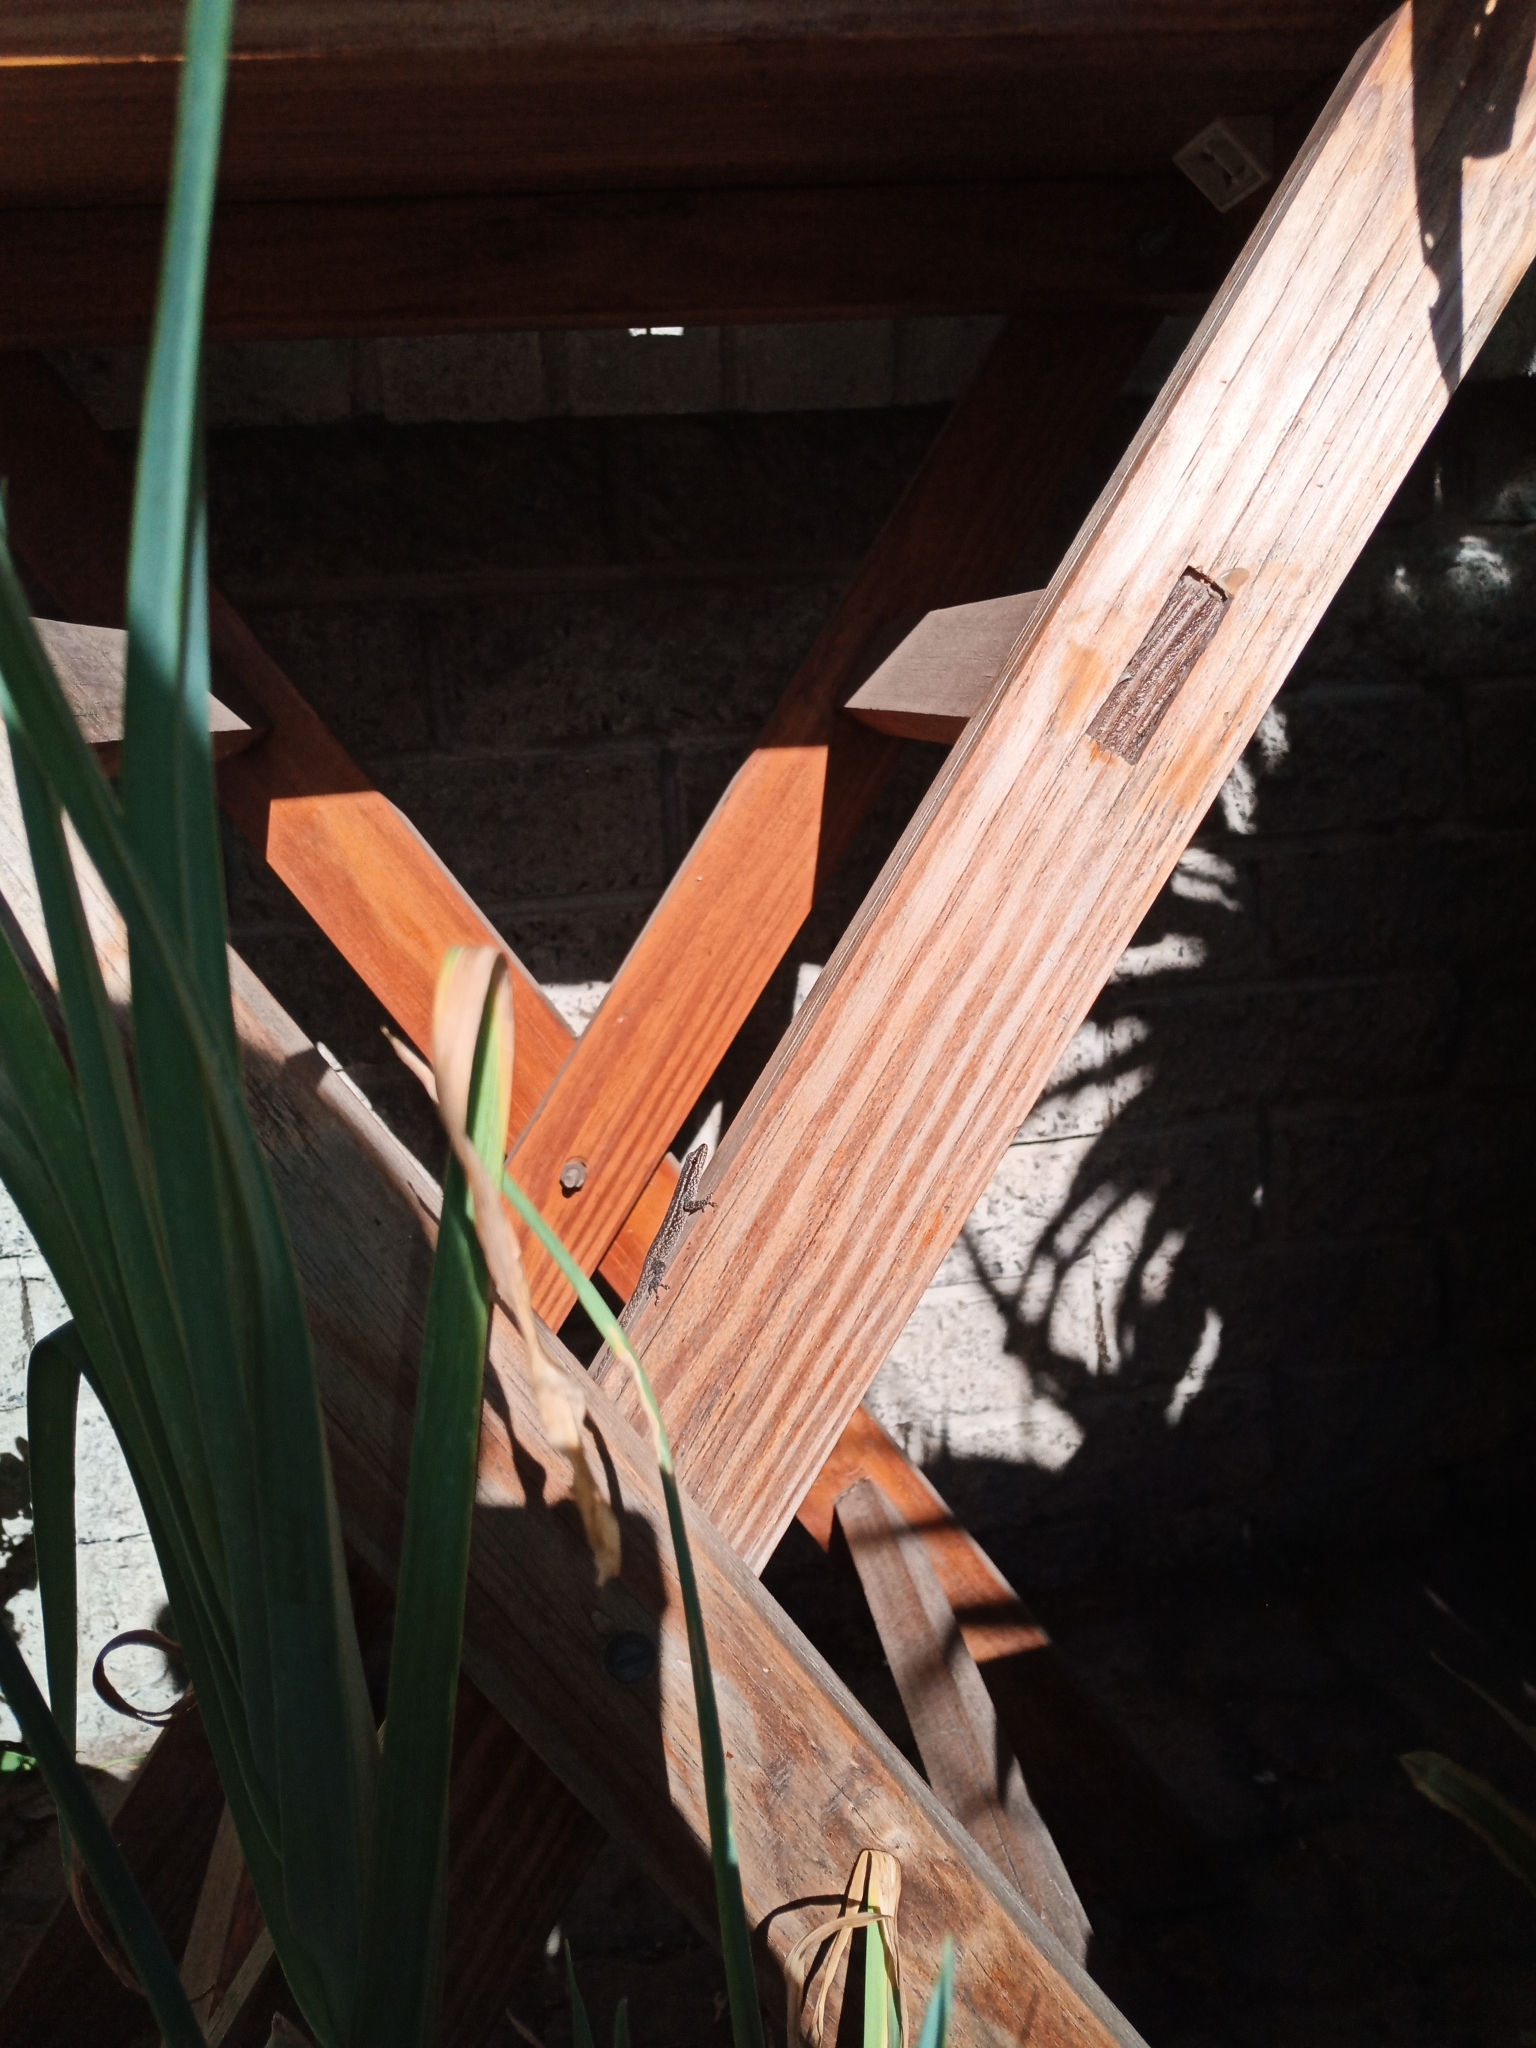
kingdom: Animalia
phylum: Chordata
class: Squamata
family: Gekkonidae
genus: Lygodactylus
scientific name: Lygodactylus capensis
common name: Cape dwarf gecko
